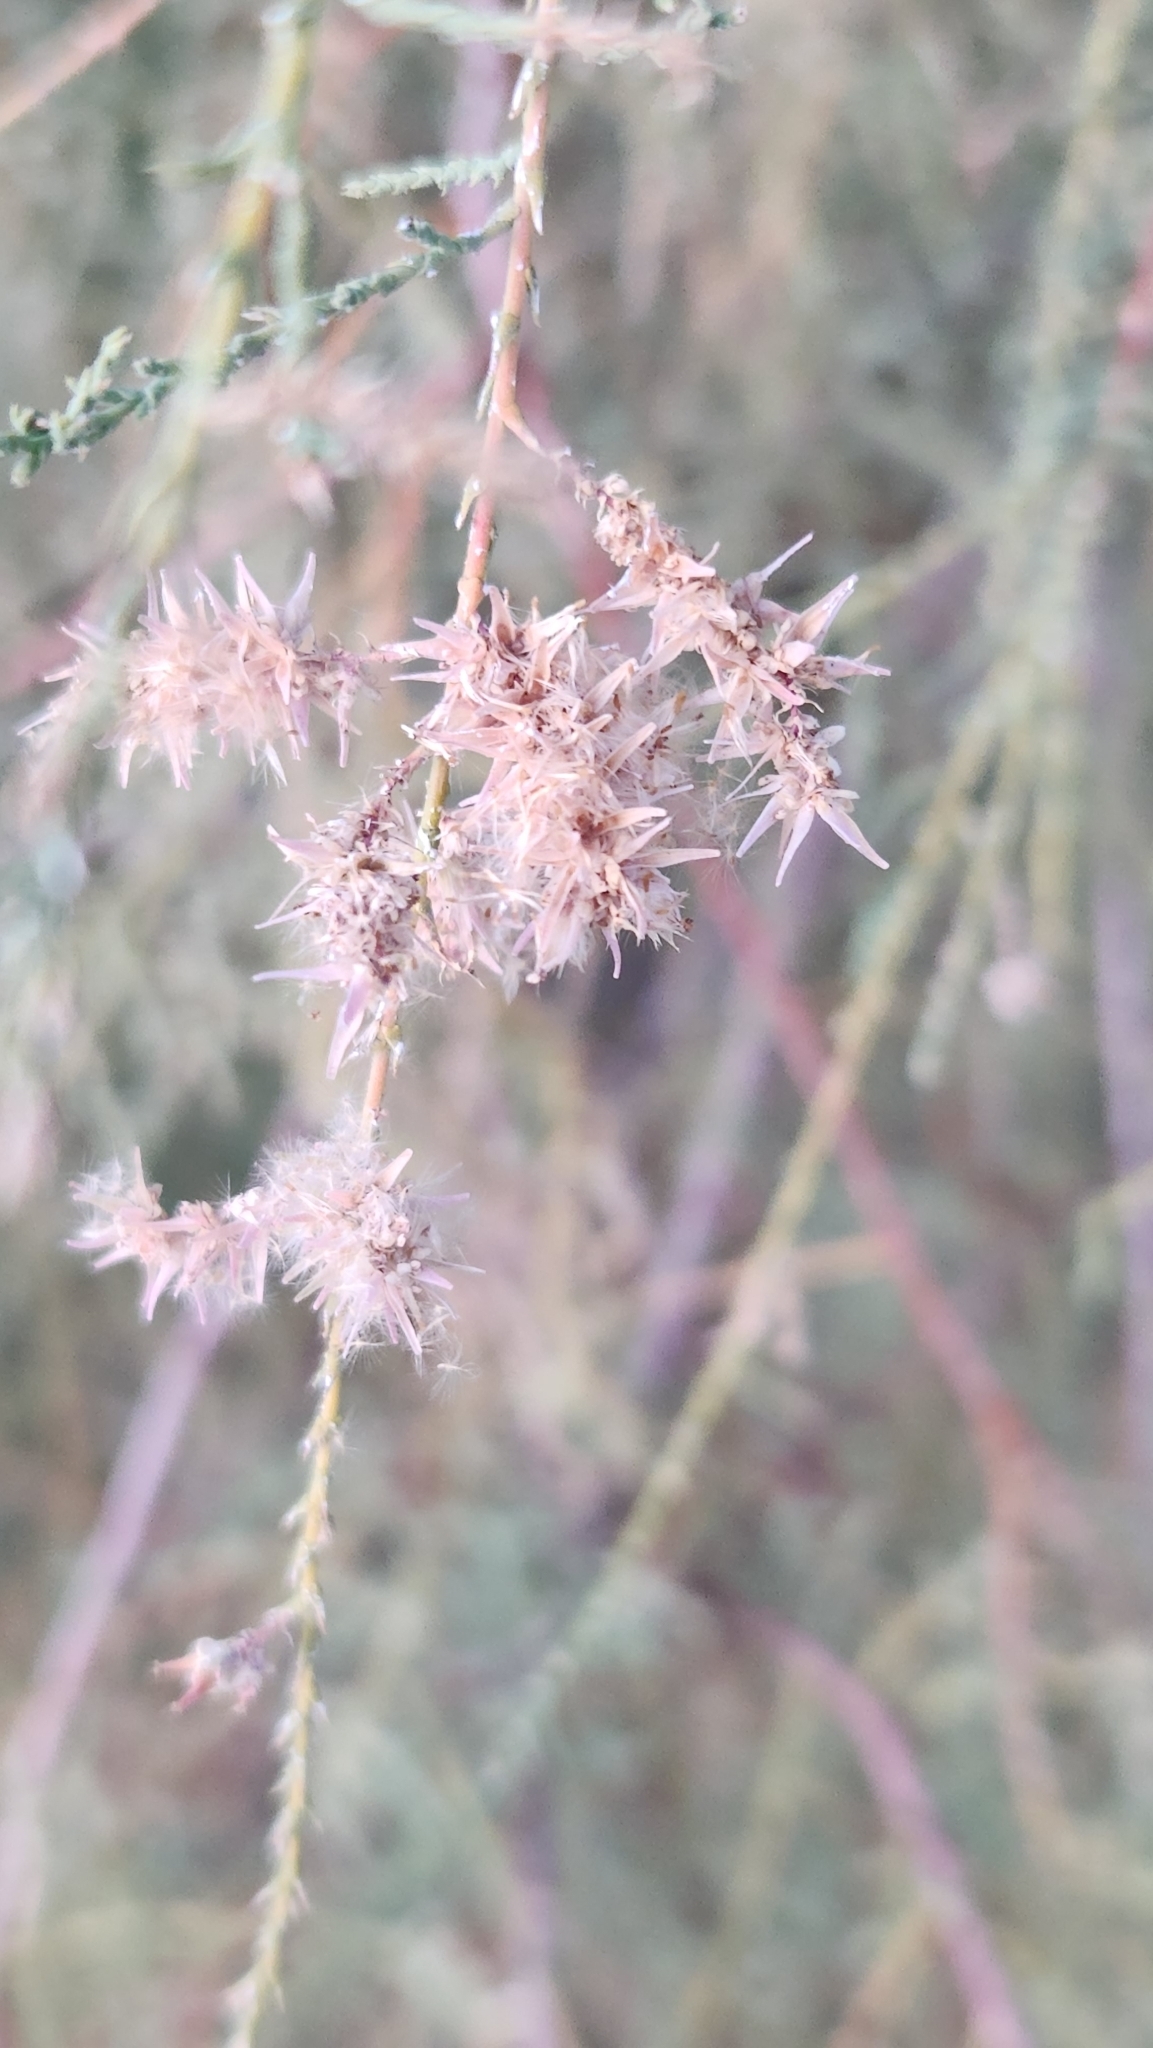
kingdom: Plantae
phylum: Tracheophyta
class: Magnoliopsida
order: Caryophyllales
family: Tamaricaceae
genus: Tamarix
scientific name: Tamarix ramosissima
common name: Pink tamarisk
